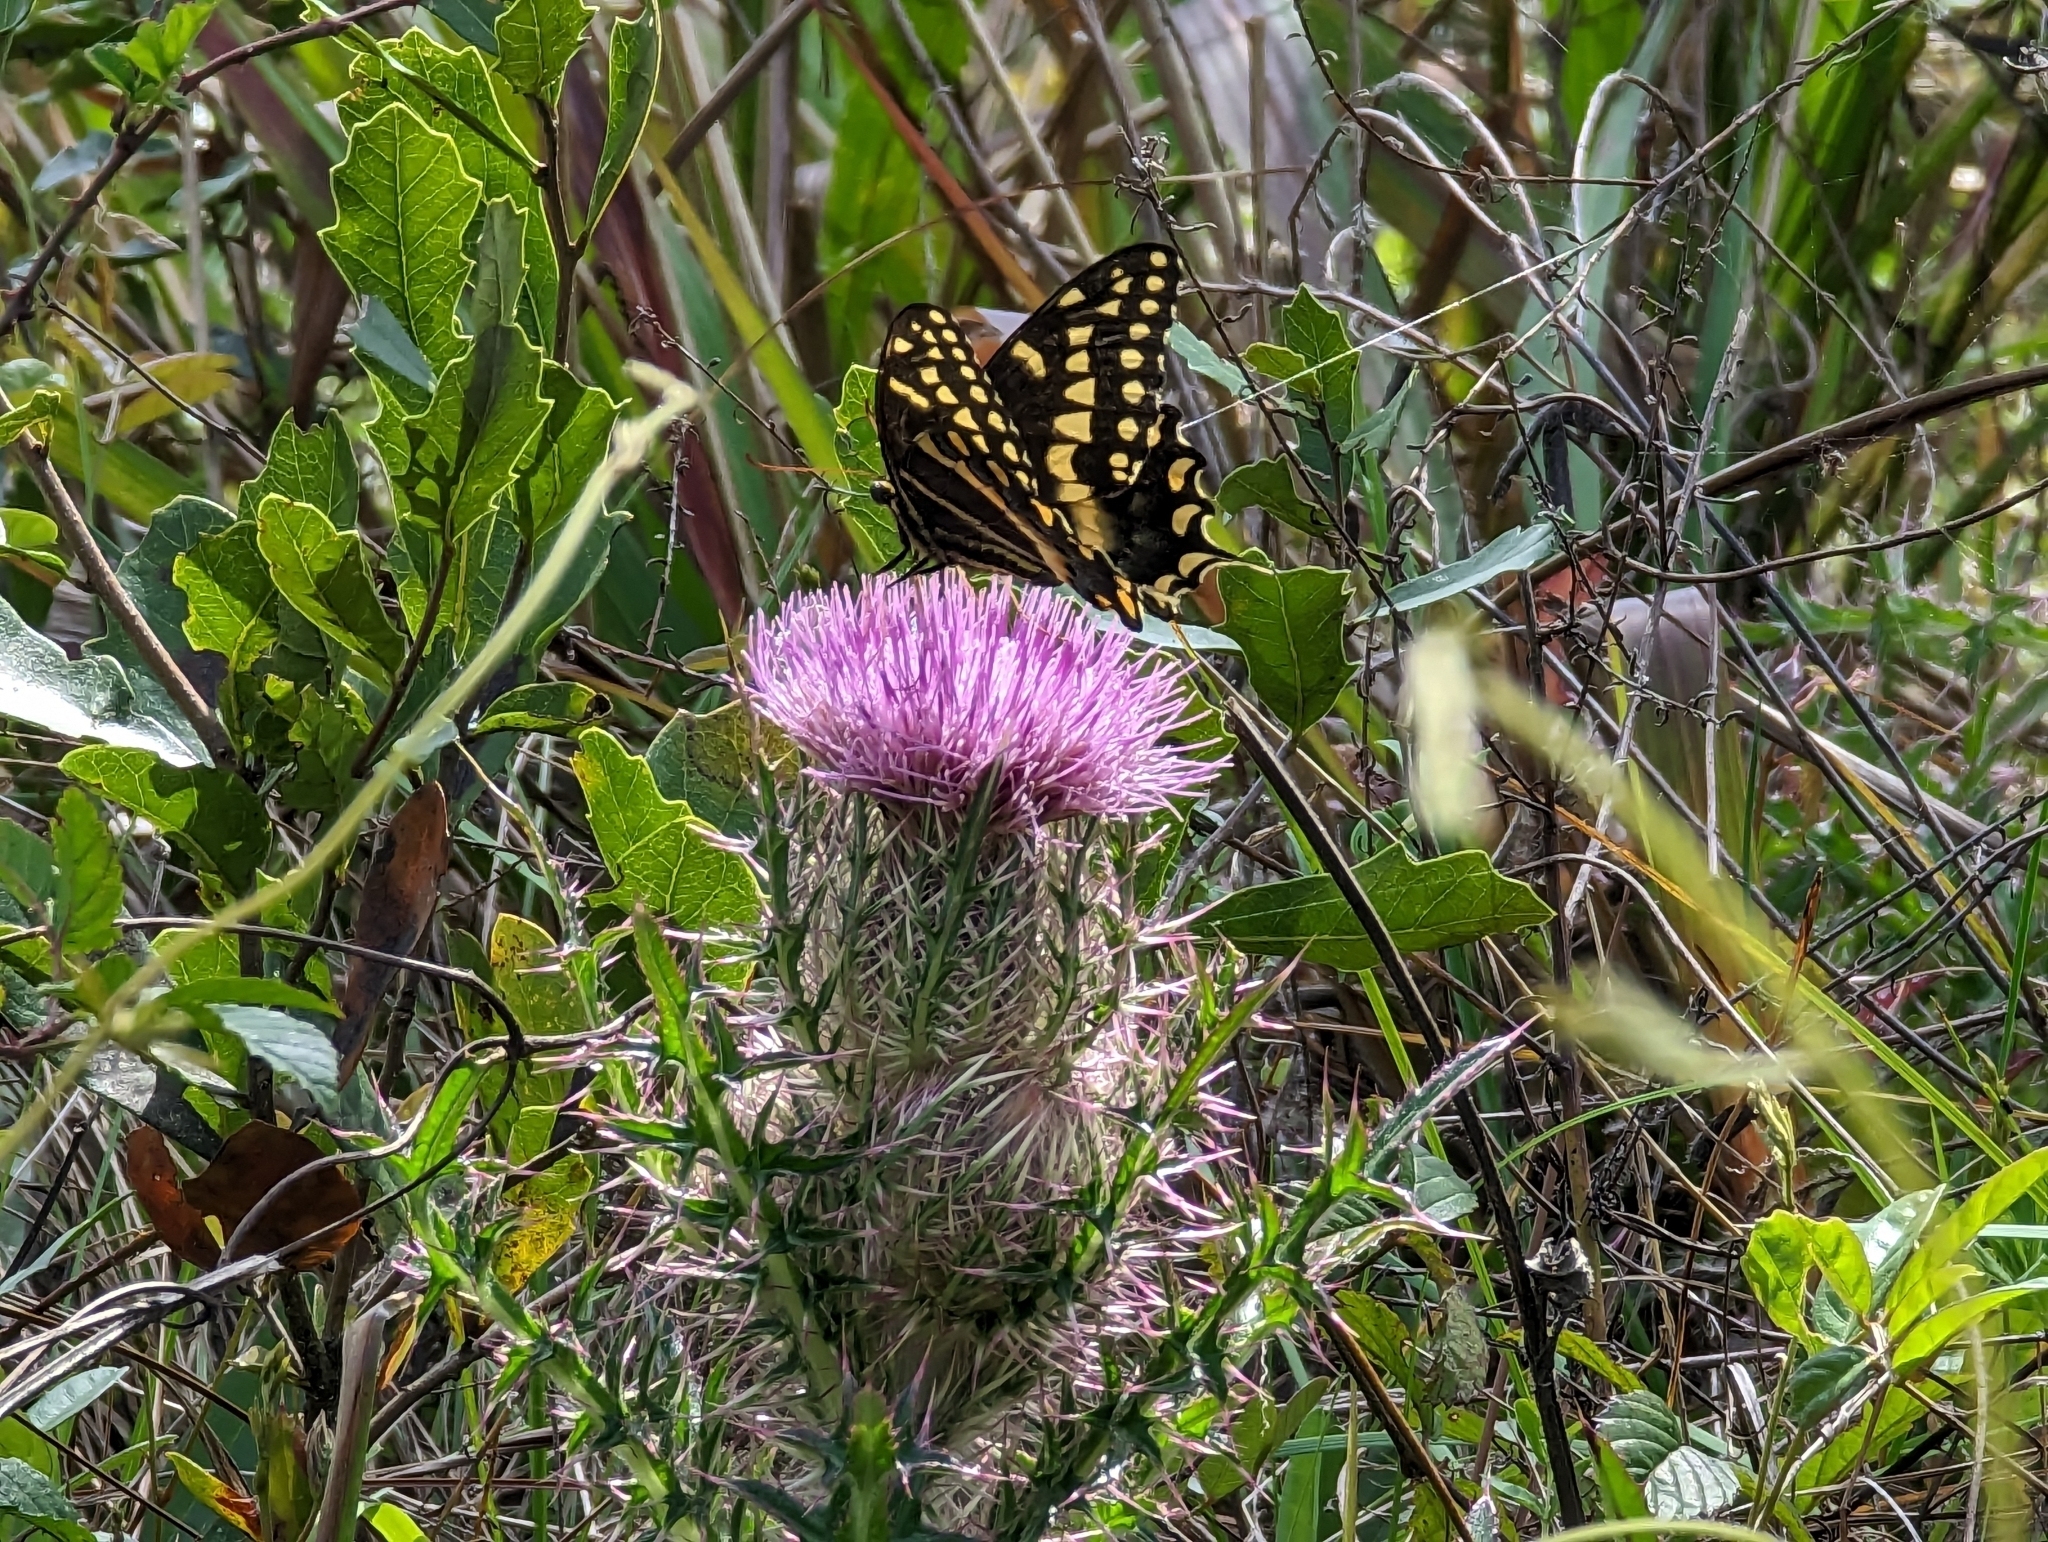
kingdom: Animalia
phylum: Arthropoda
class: Insecta
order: Lepidoptera
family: Papilionidae
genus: Papilio
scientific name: Papilio palamedes
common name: Palamedes swallowtail
